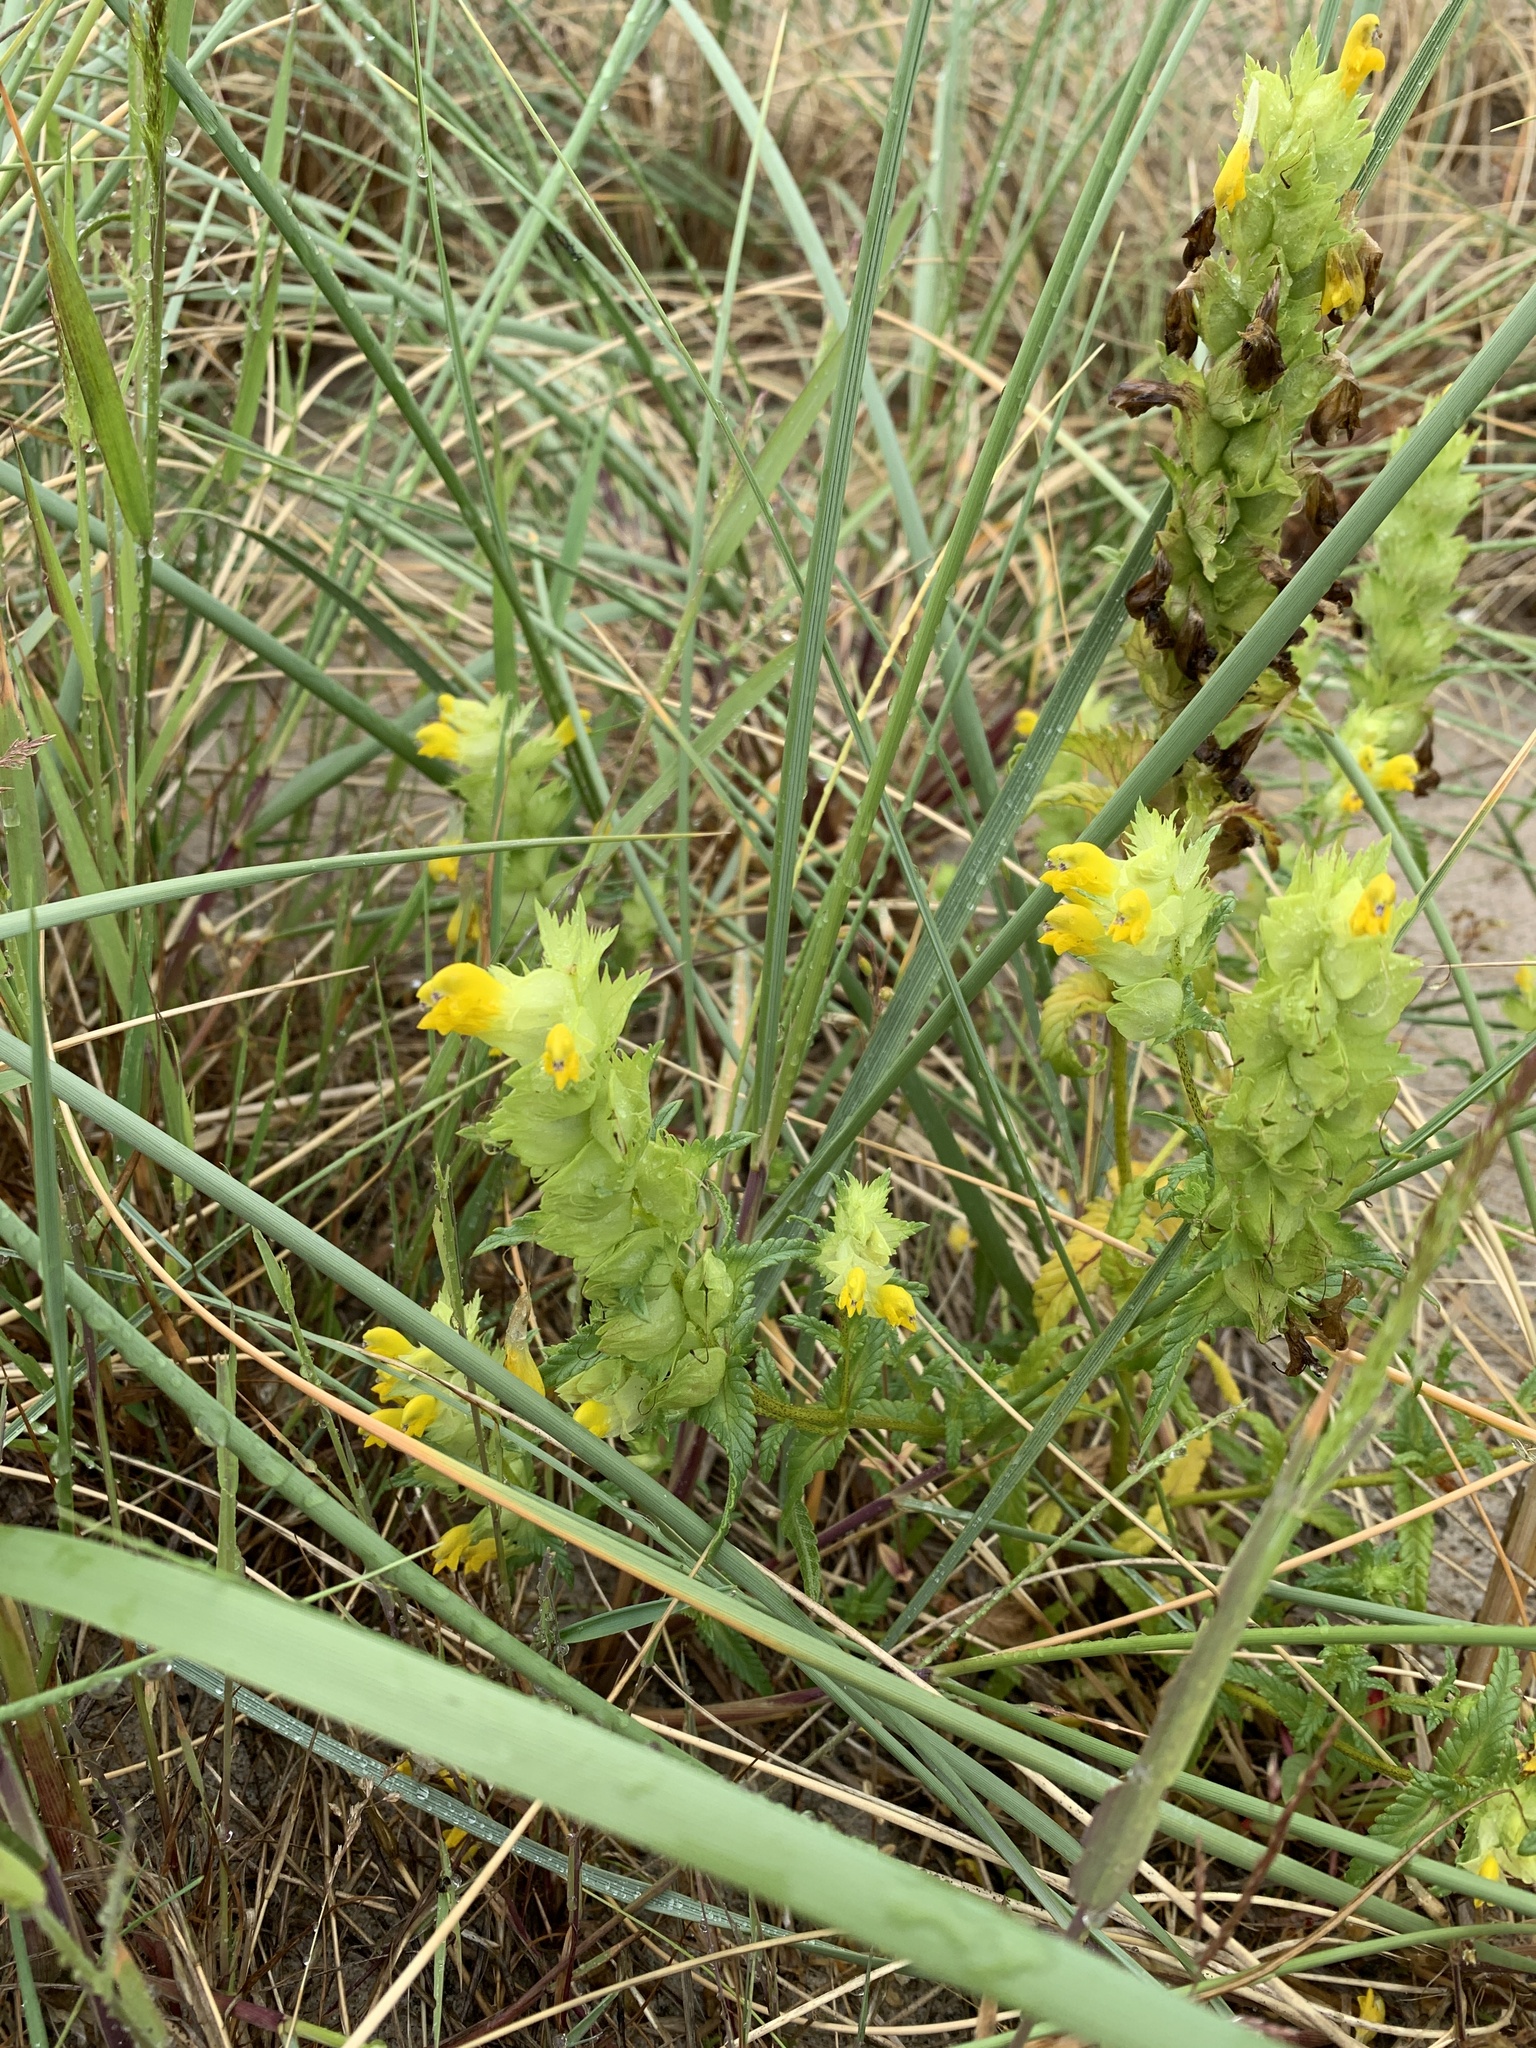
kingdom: Plantae
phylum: Tracheophyta
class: Magnoliopsida
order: Lamiales
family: Orobanchaceae
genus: Rhinanthus
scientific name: Rhinanthus serotinus
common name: Late-flowering yellow rattle
